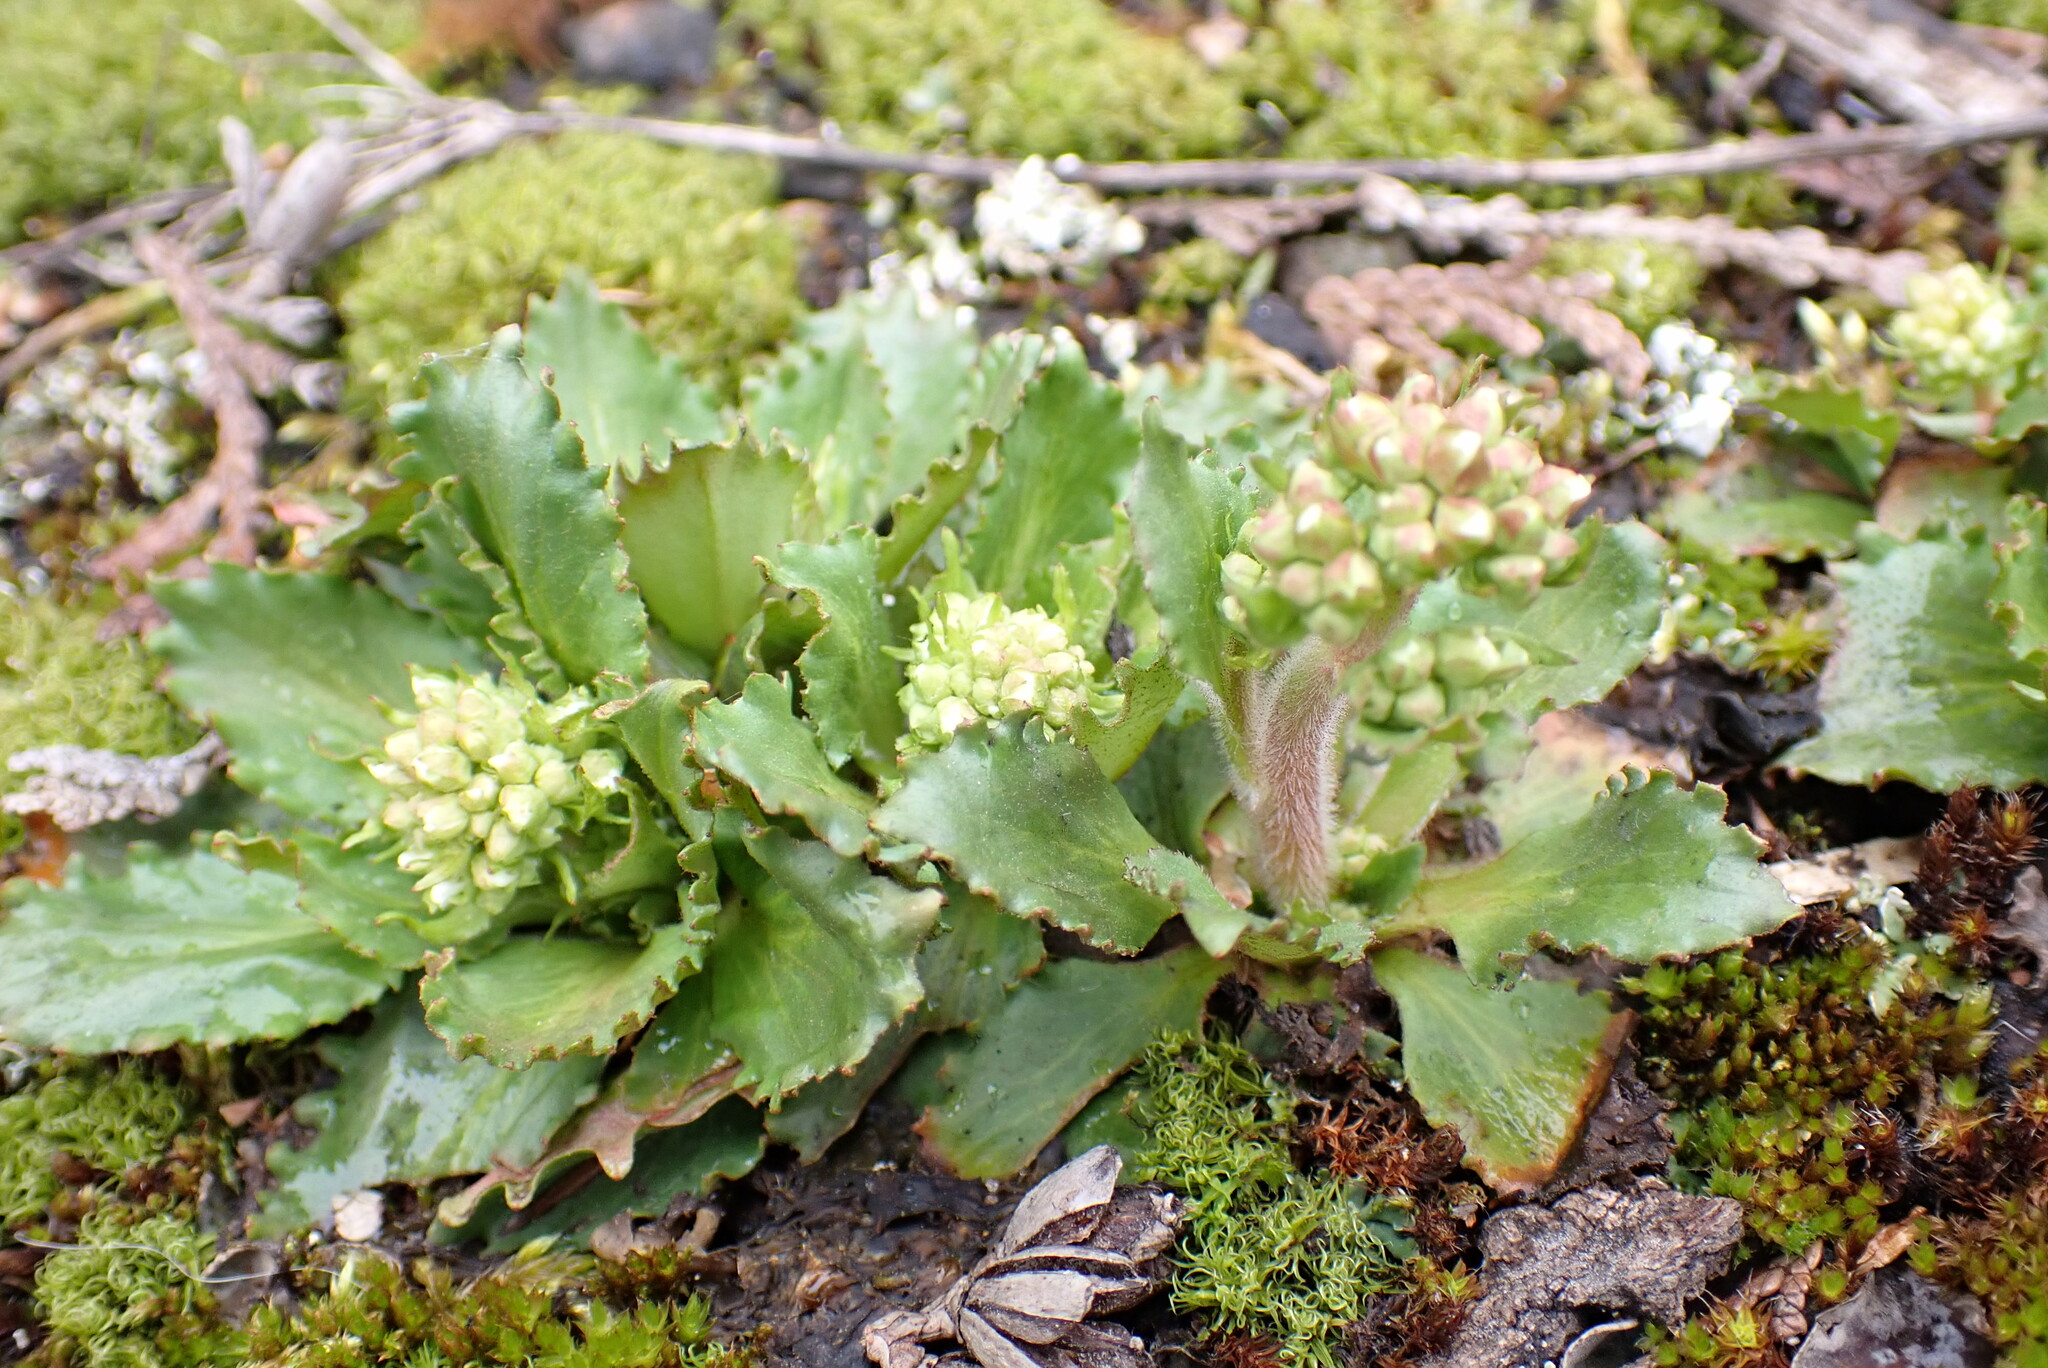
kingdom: Plantae
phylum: Tracheophyta
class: Magnoliopsida
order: Saxifragales
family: Saxifragaceae
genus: Micranthes
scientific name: Micranthes virginiensis
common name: Early saxifrage
